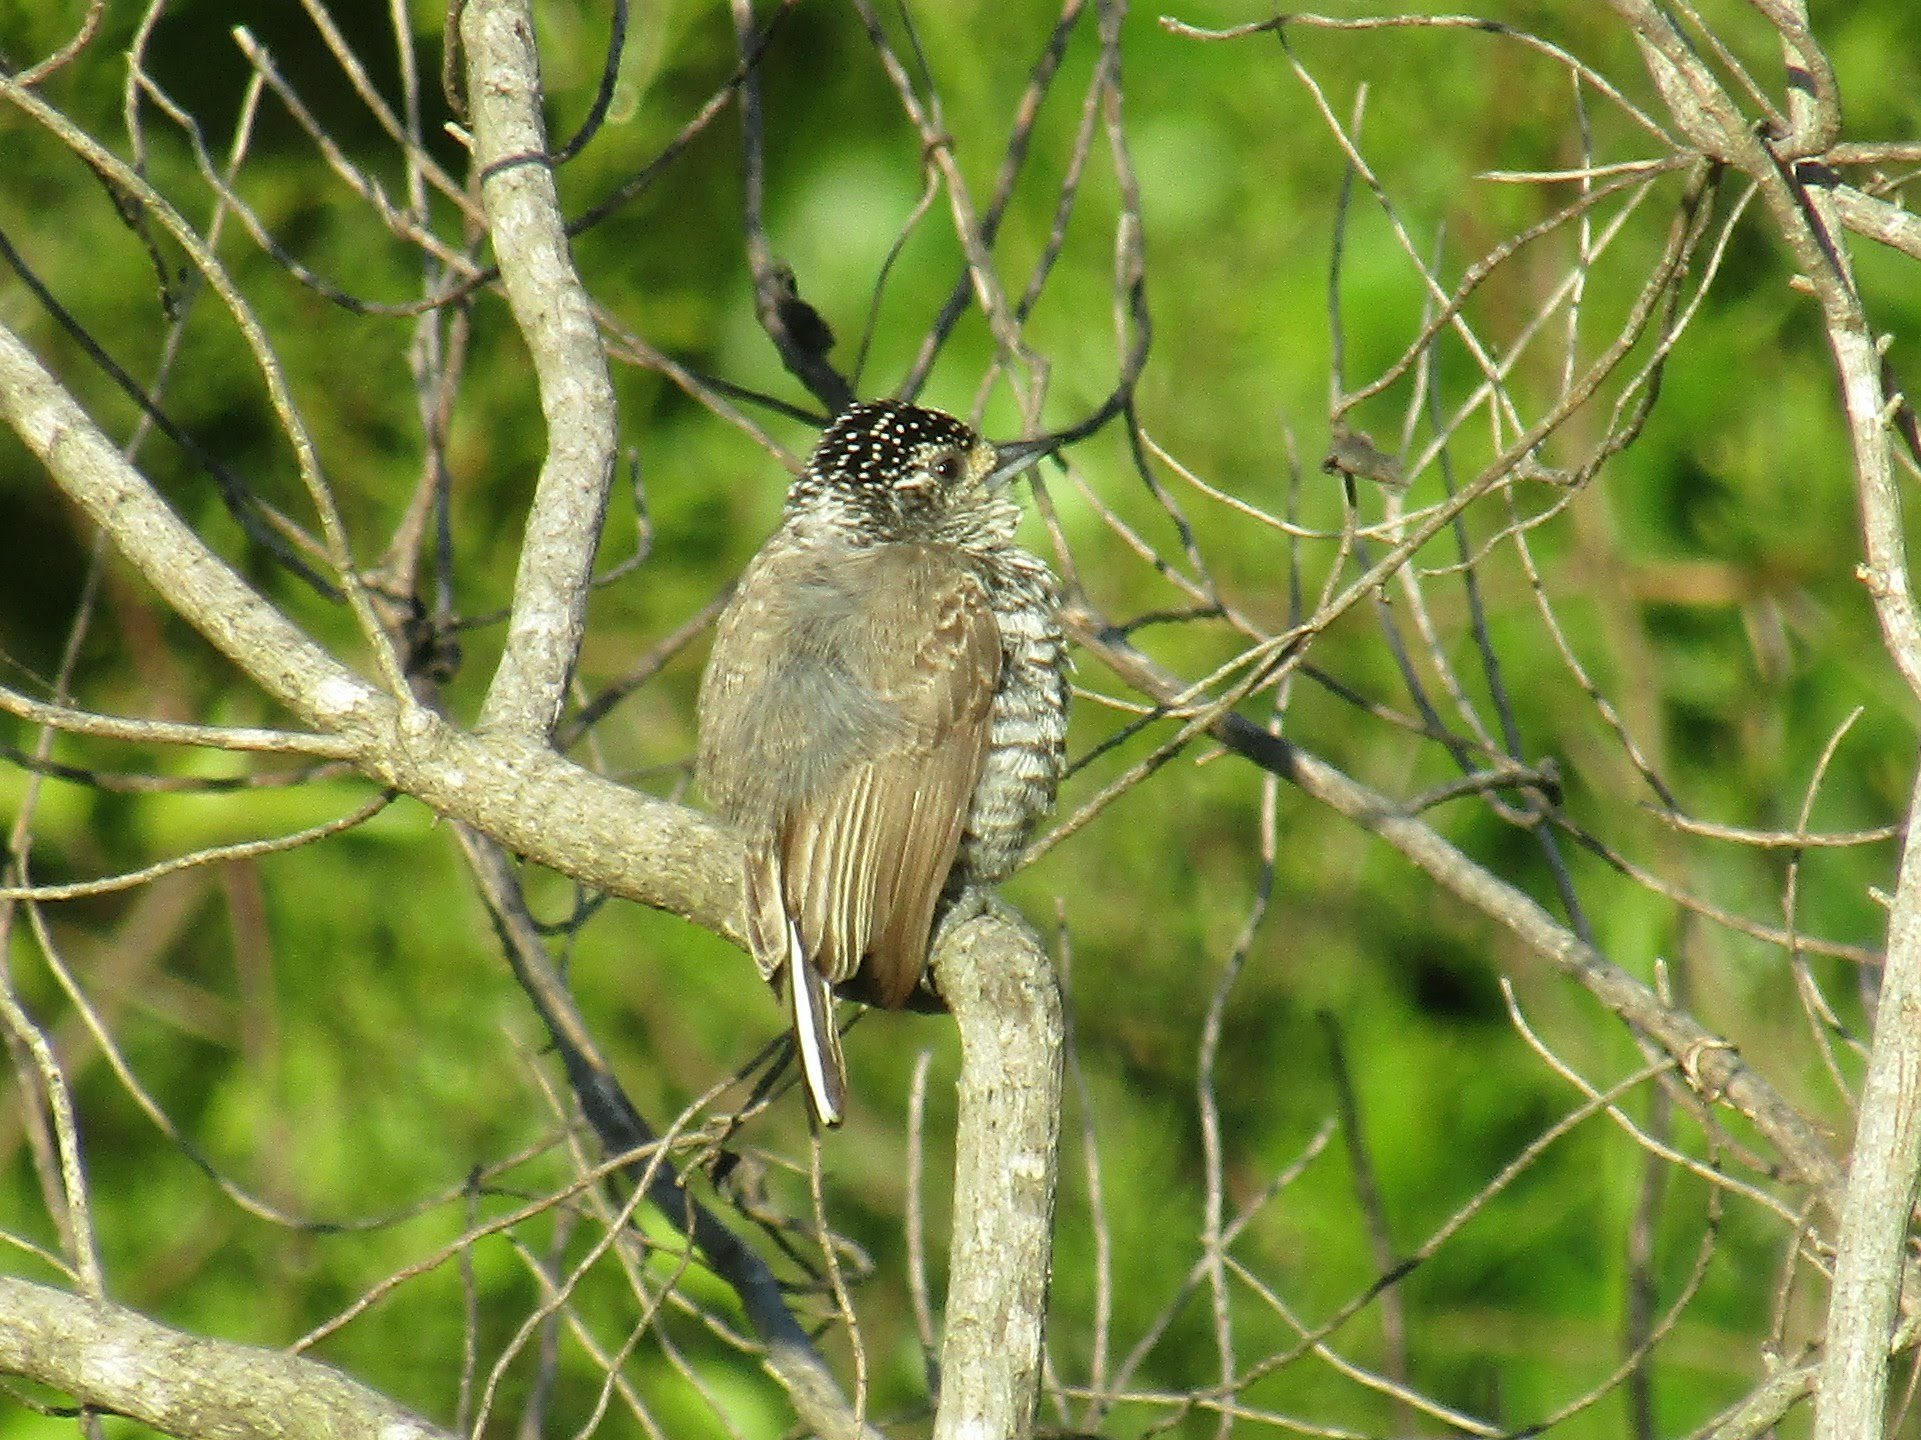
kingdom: Animalia
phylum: Chordata
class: Aves
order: Piciformes
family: Picidae
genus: Picumnus
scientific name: Picumnus cirratus
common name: White-barred piculet
